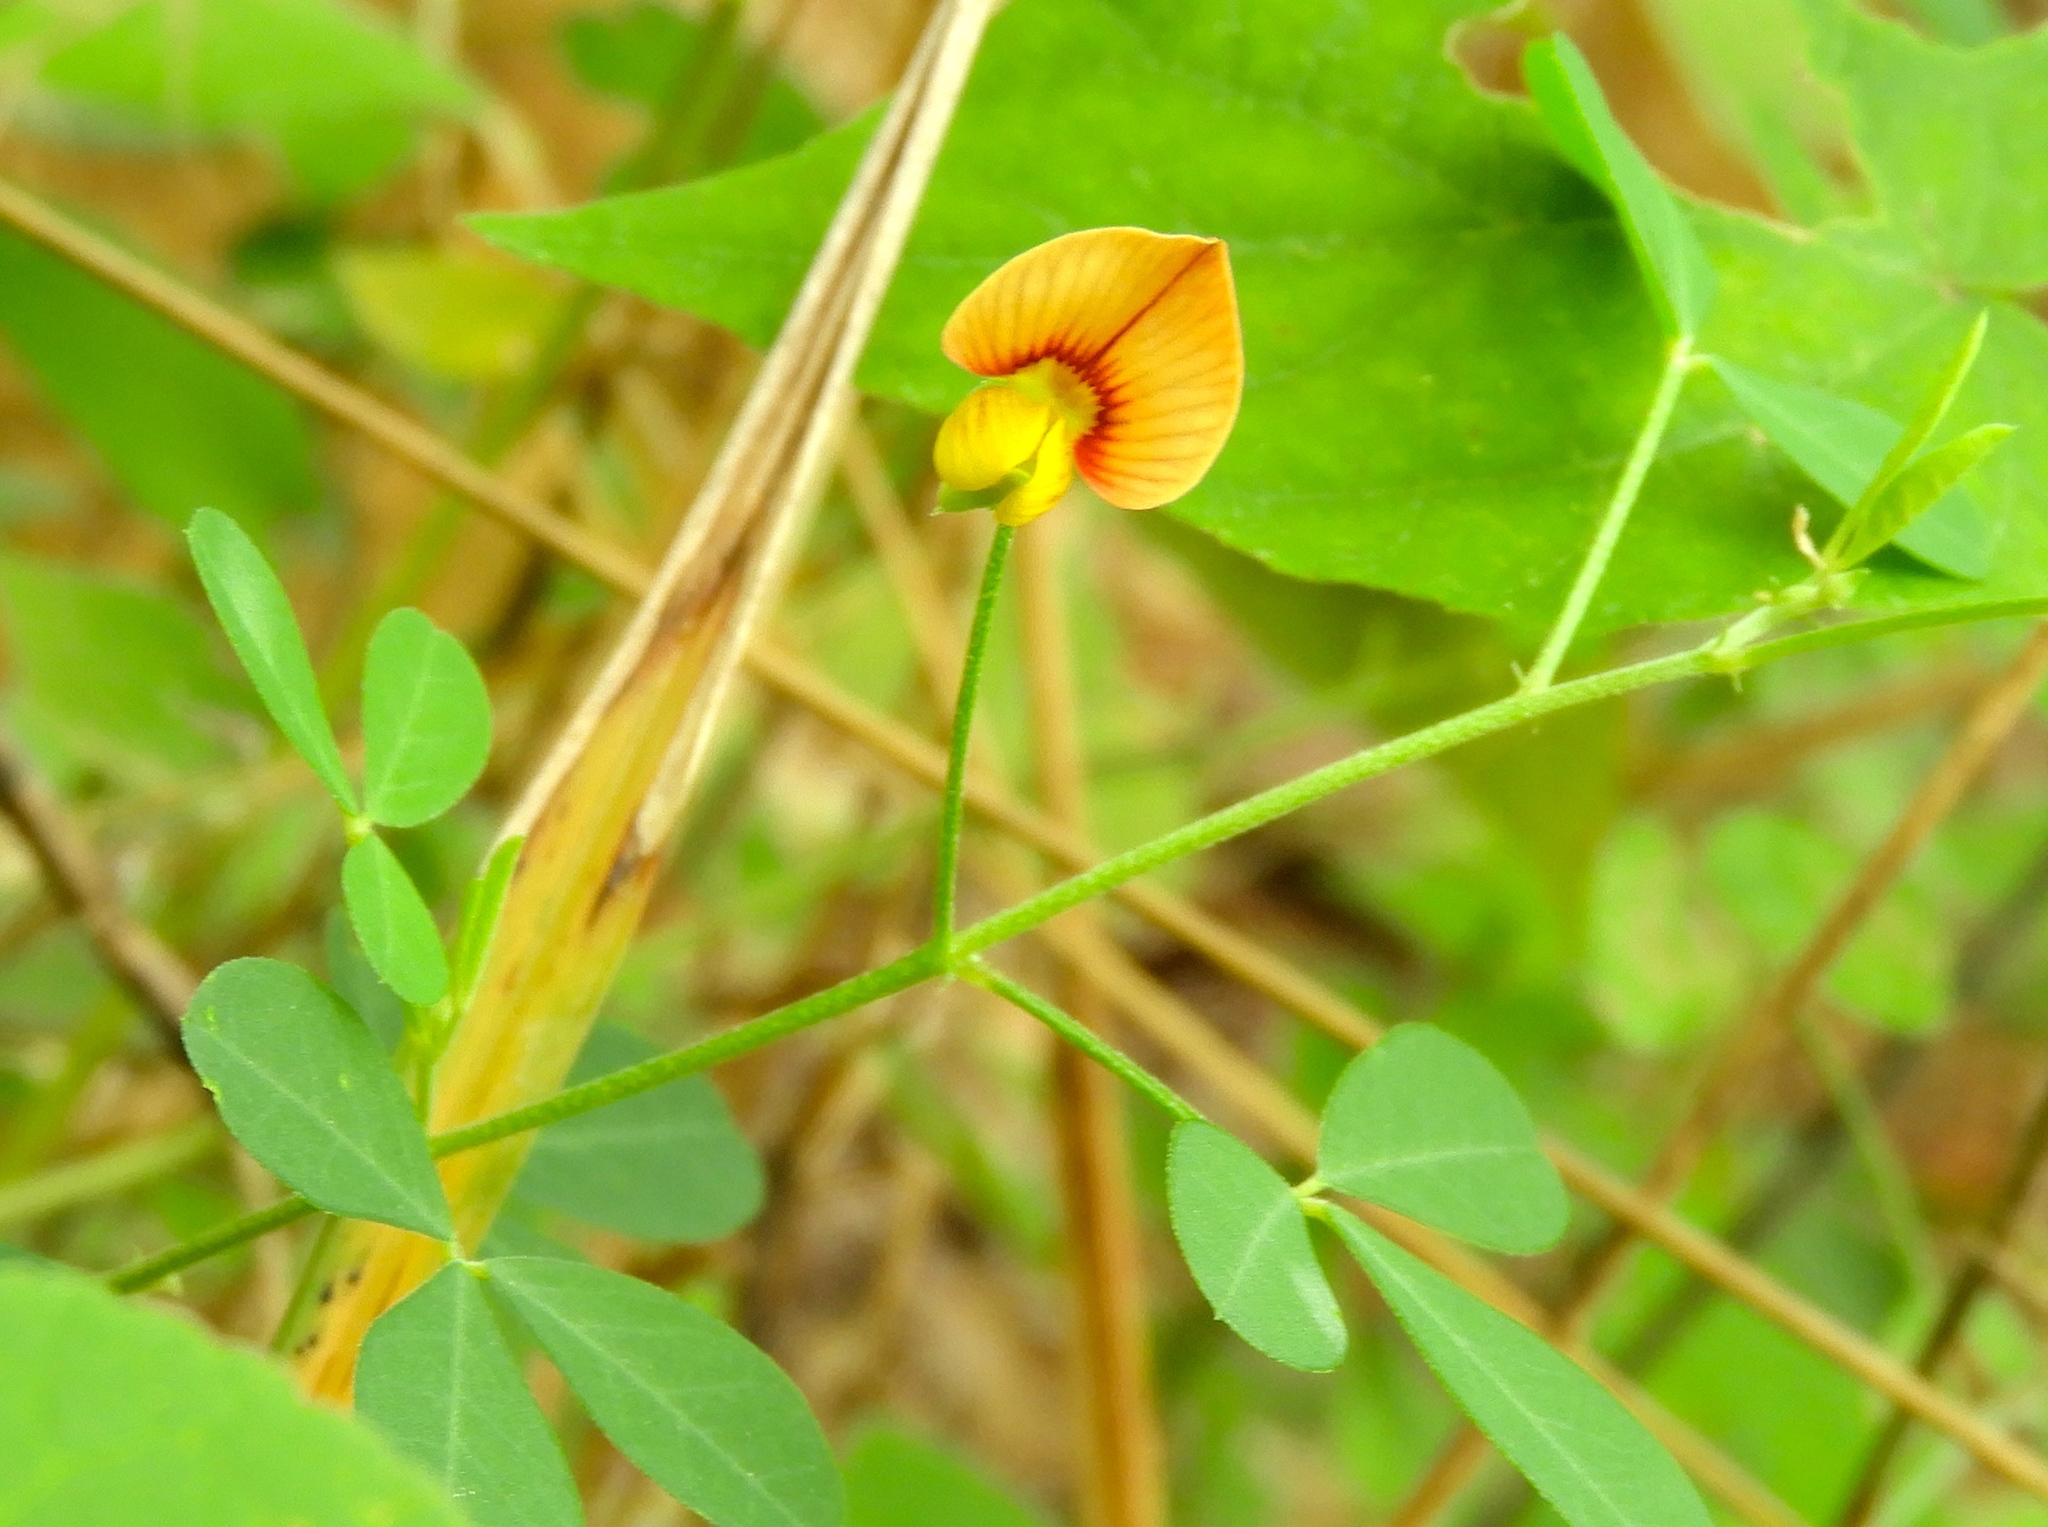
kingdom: Plantae
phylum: Tracheophyta
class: Magnoliopsida
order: Fabales
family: Fabaceae
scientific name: Fabaceae
